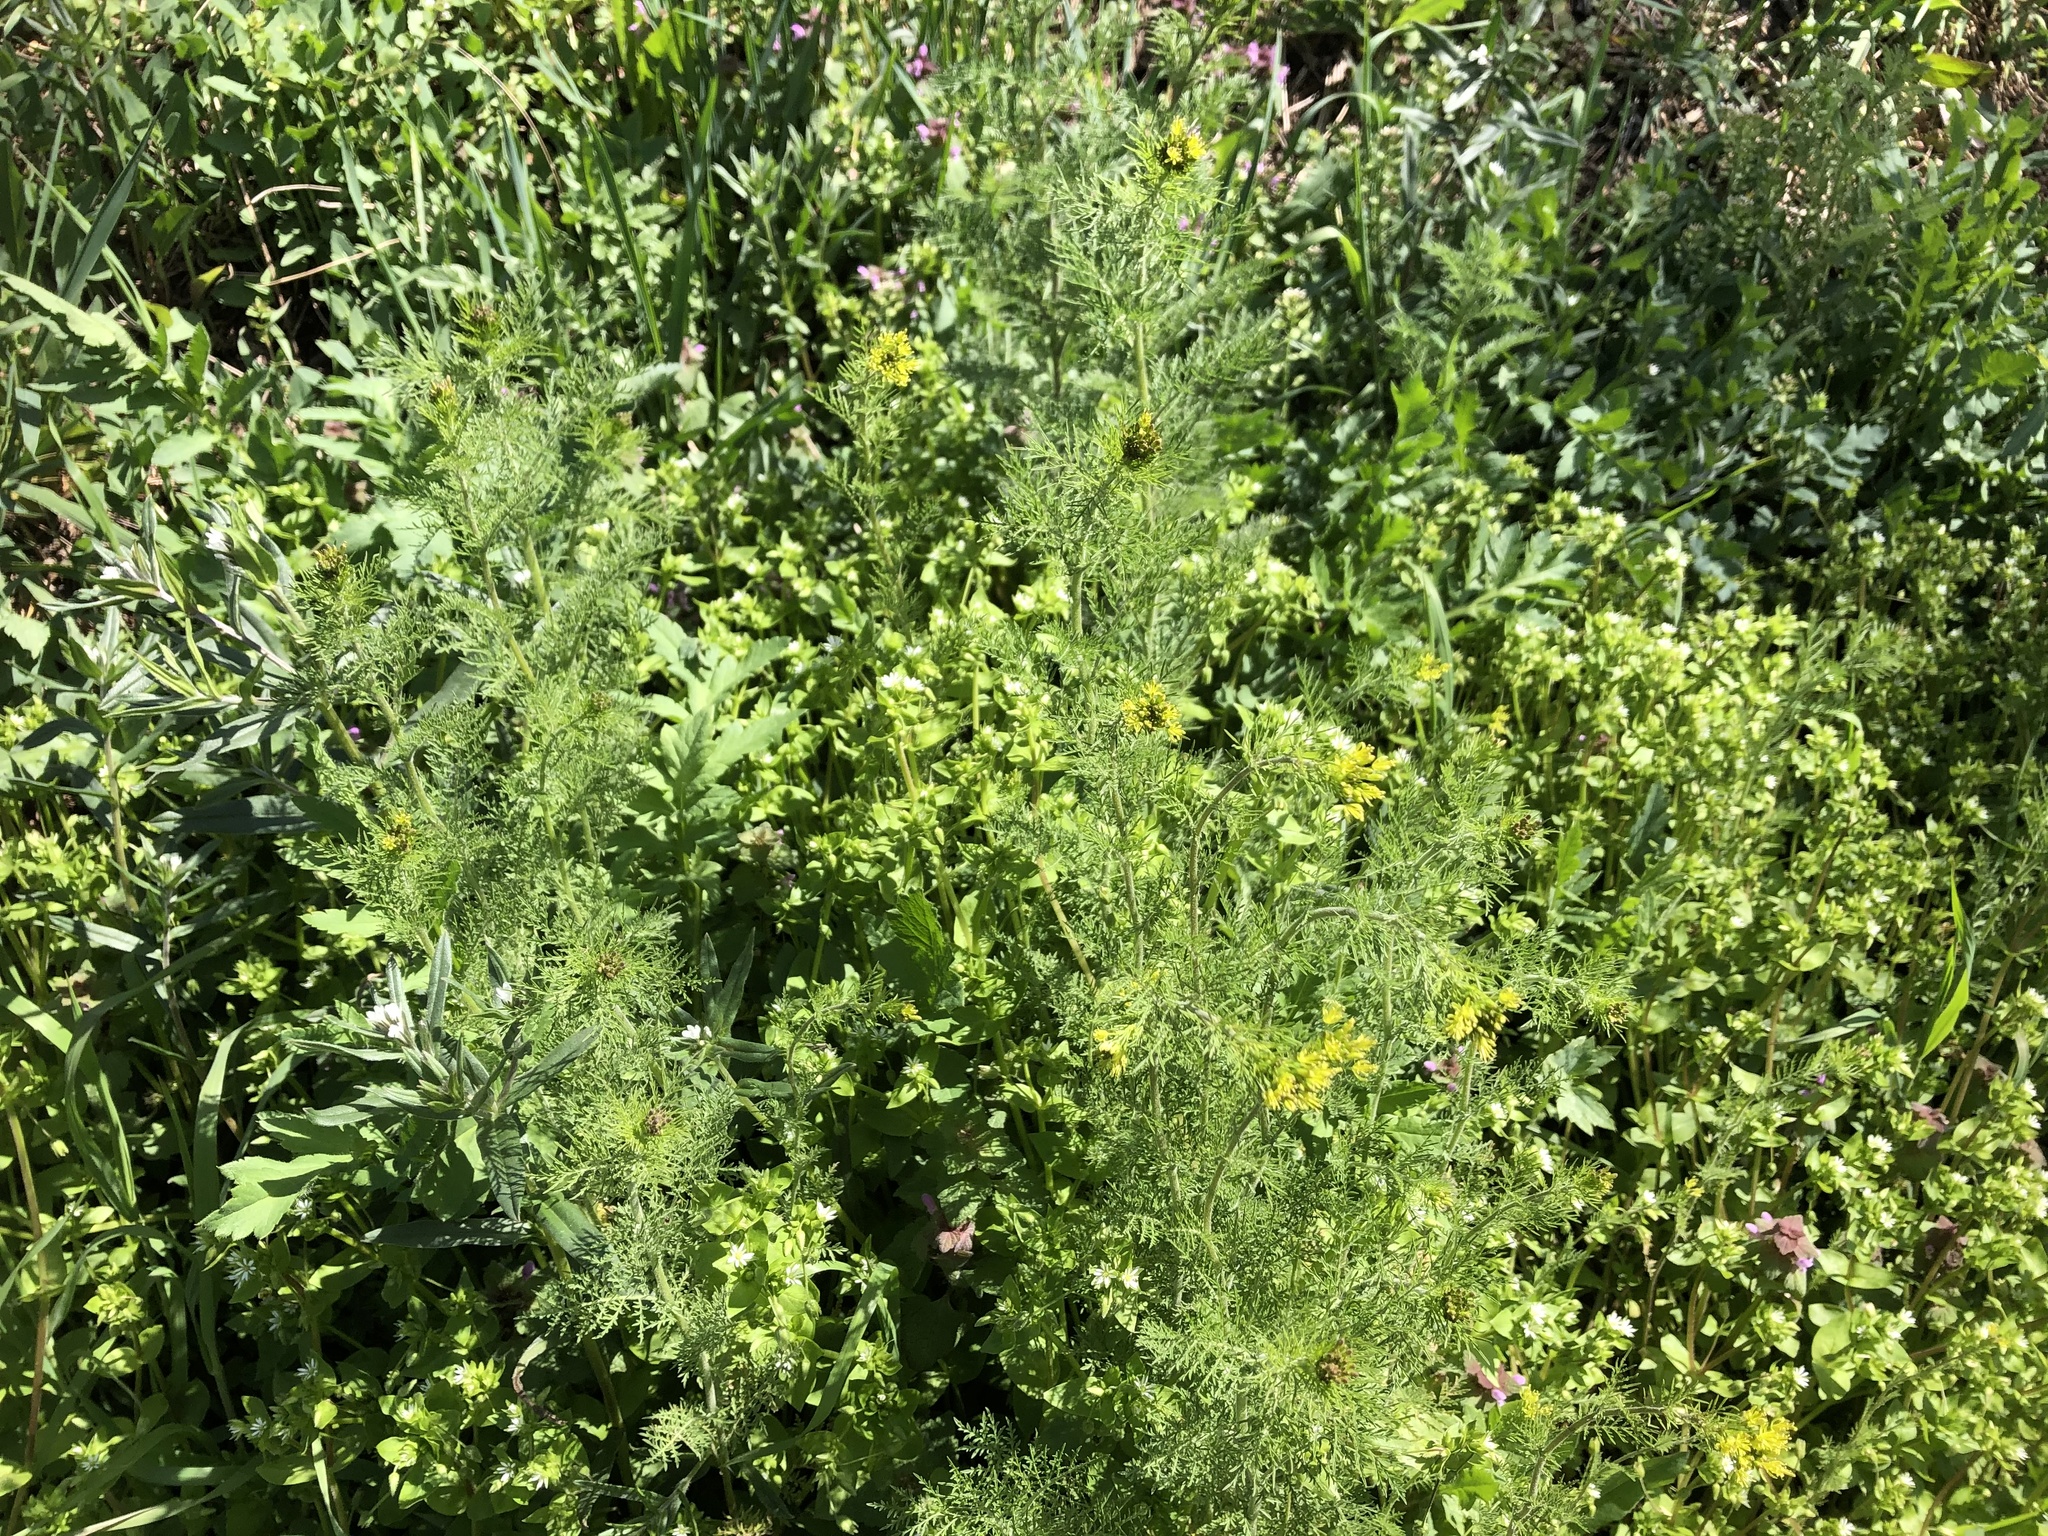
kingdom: Plantae
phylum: Tracheophyta
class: Magnoliopsida
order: Brassicales
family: Brassicaceae
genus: Descurainia
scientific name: Descurainia sophia
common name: Flixweed
